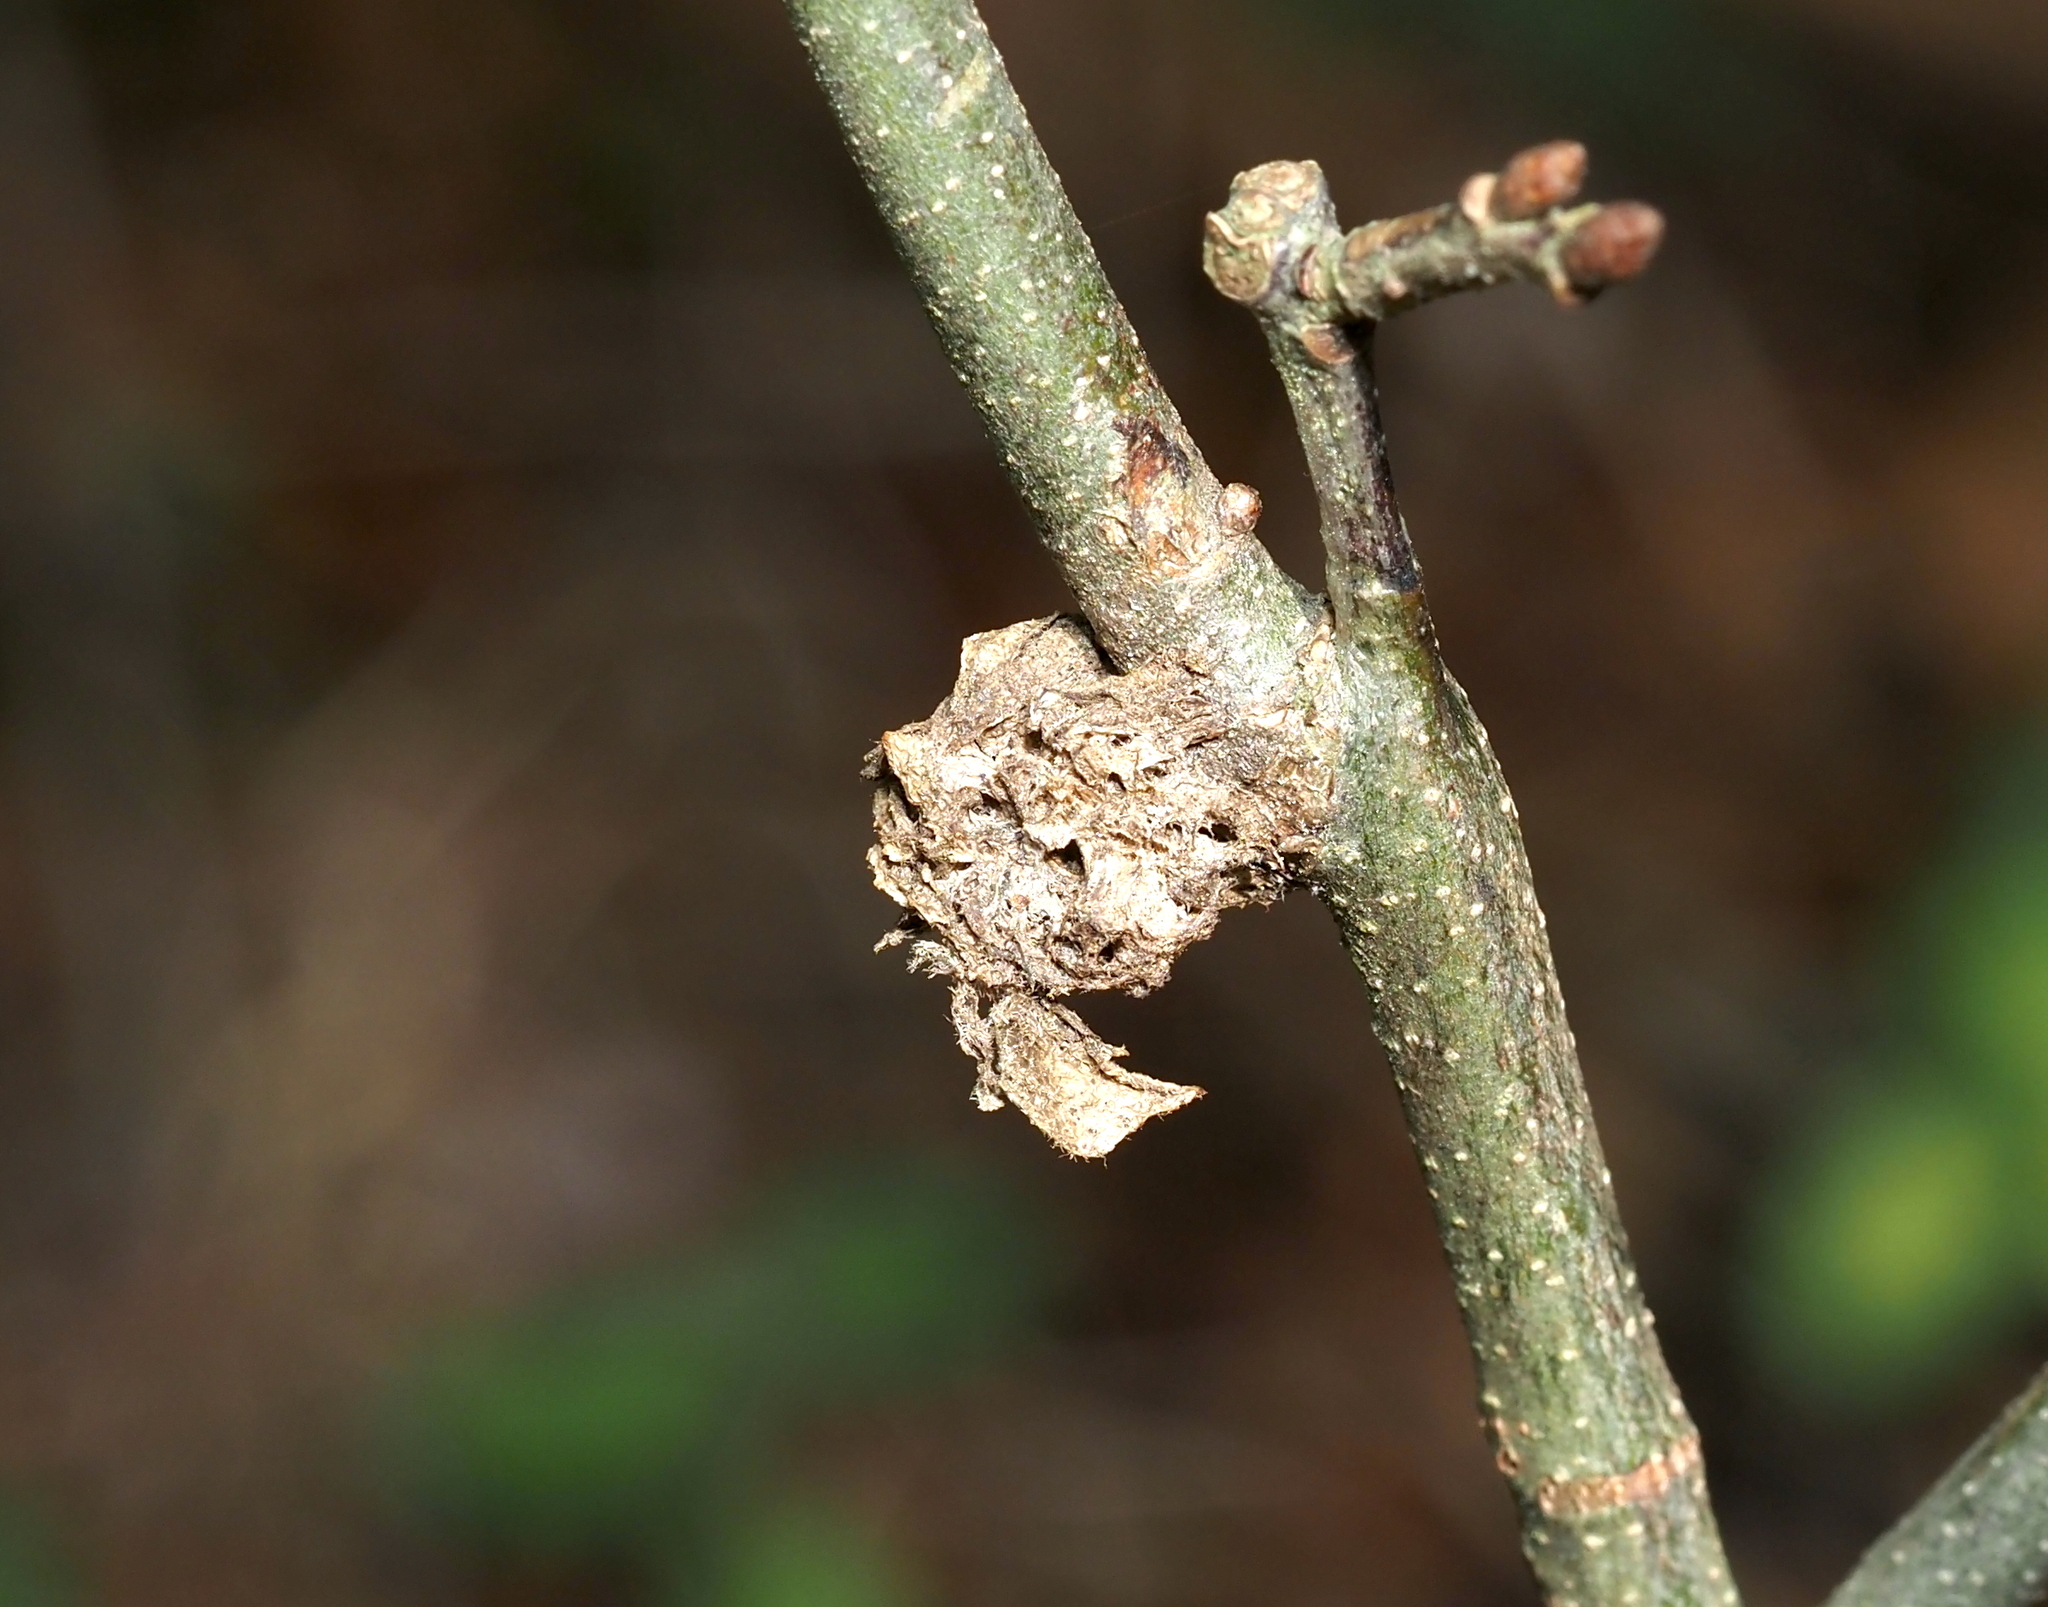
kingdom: Animalia
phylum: Arthropoda
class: Insecta
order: Hymenoptera
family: Cynipidae
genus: Dryocosmus
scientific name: Dryocosmus
